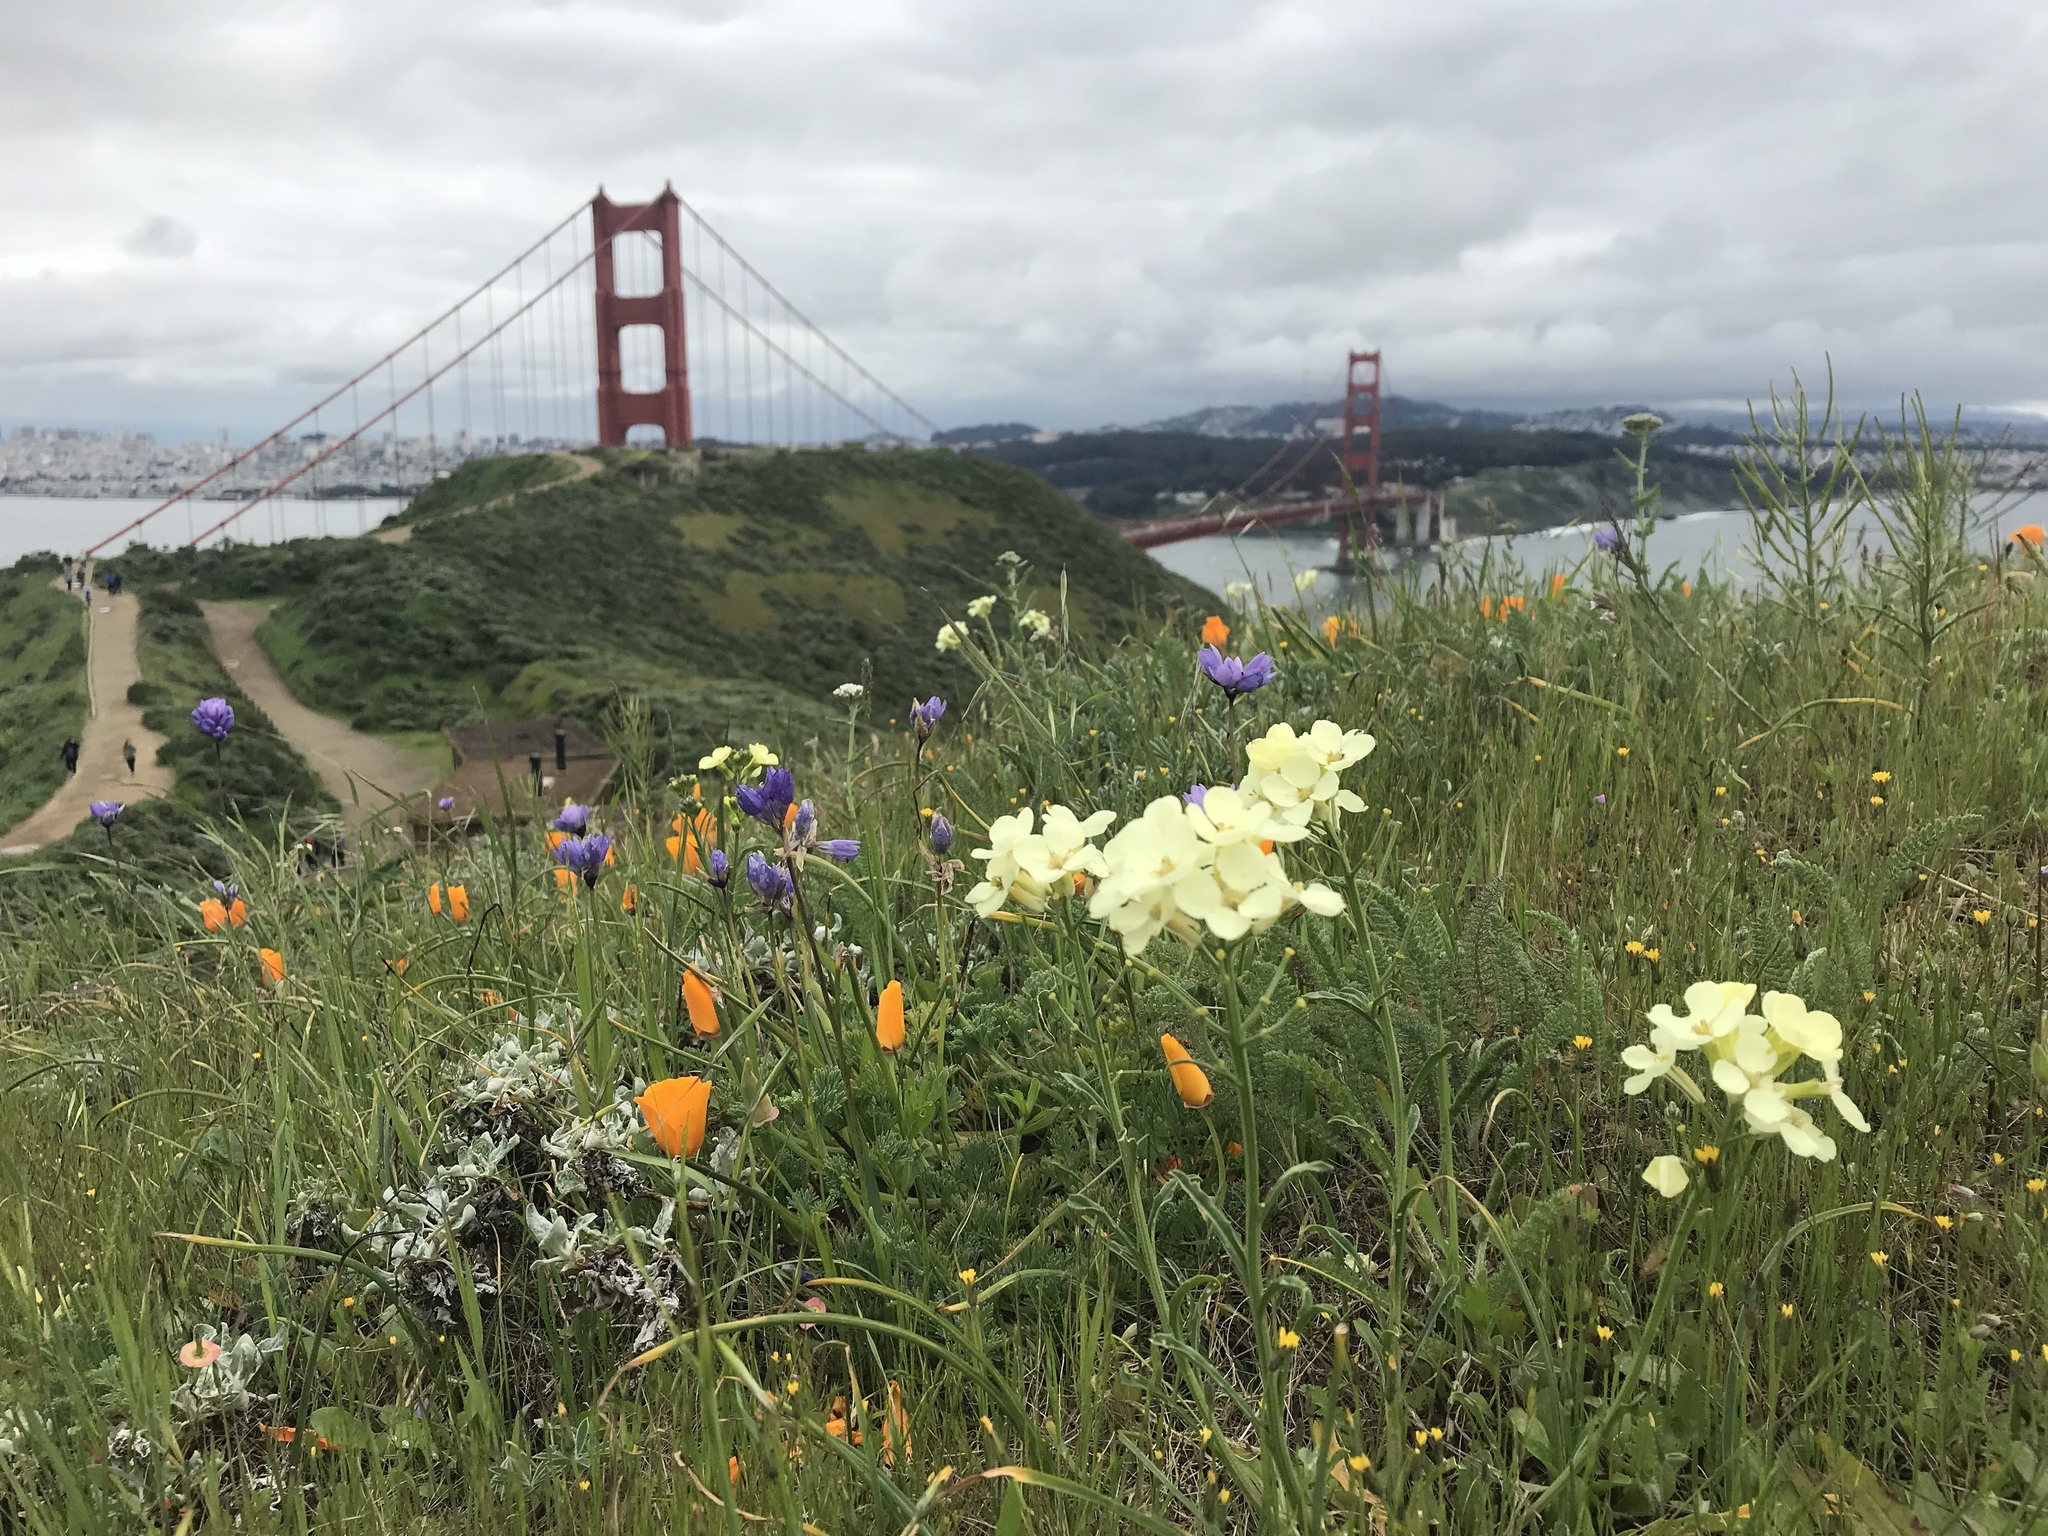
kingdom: Plantae
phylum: Tracheophyta
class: Magnoliopsida
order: Brassicales
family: Brassicaceae
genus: Erysimum
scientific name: Erysimum franciscanum
